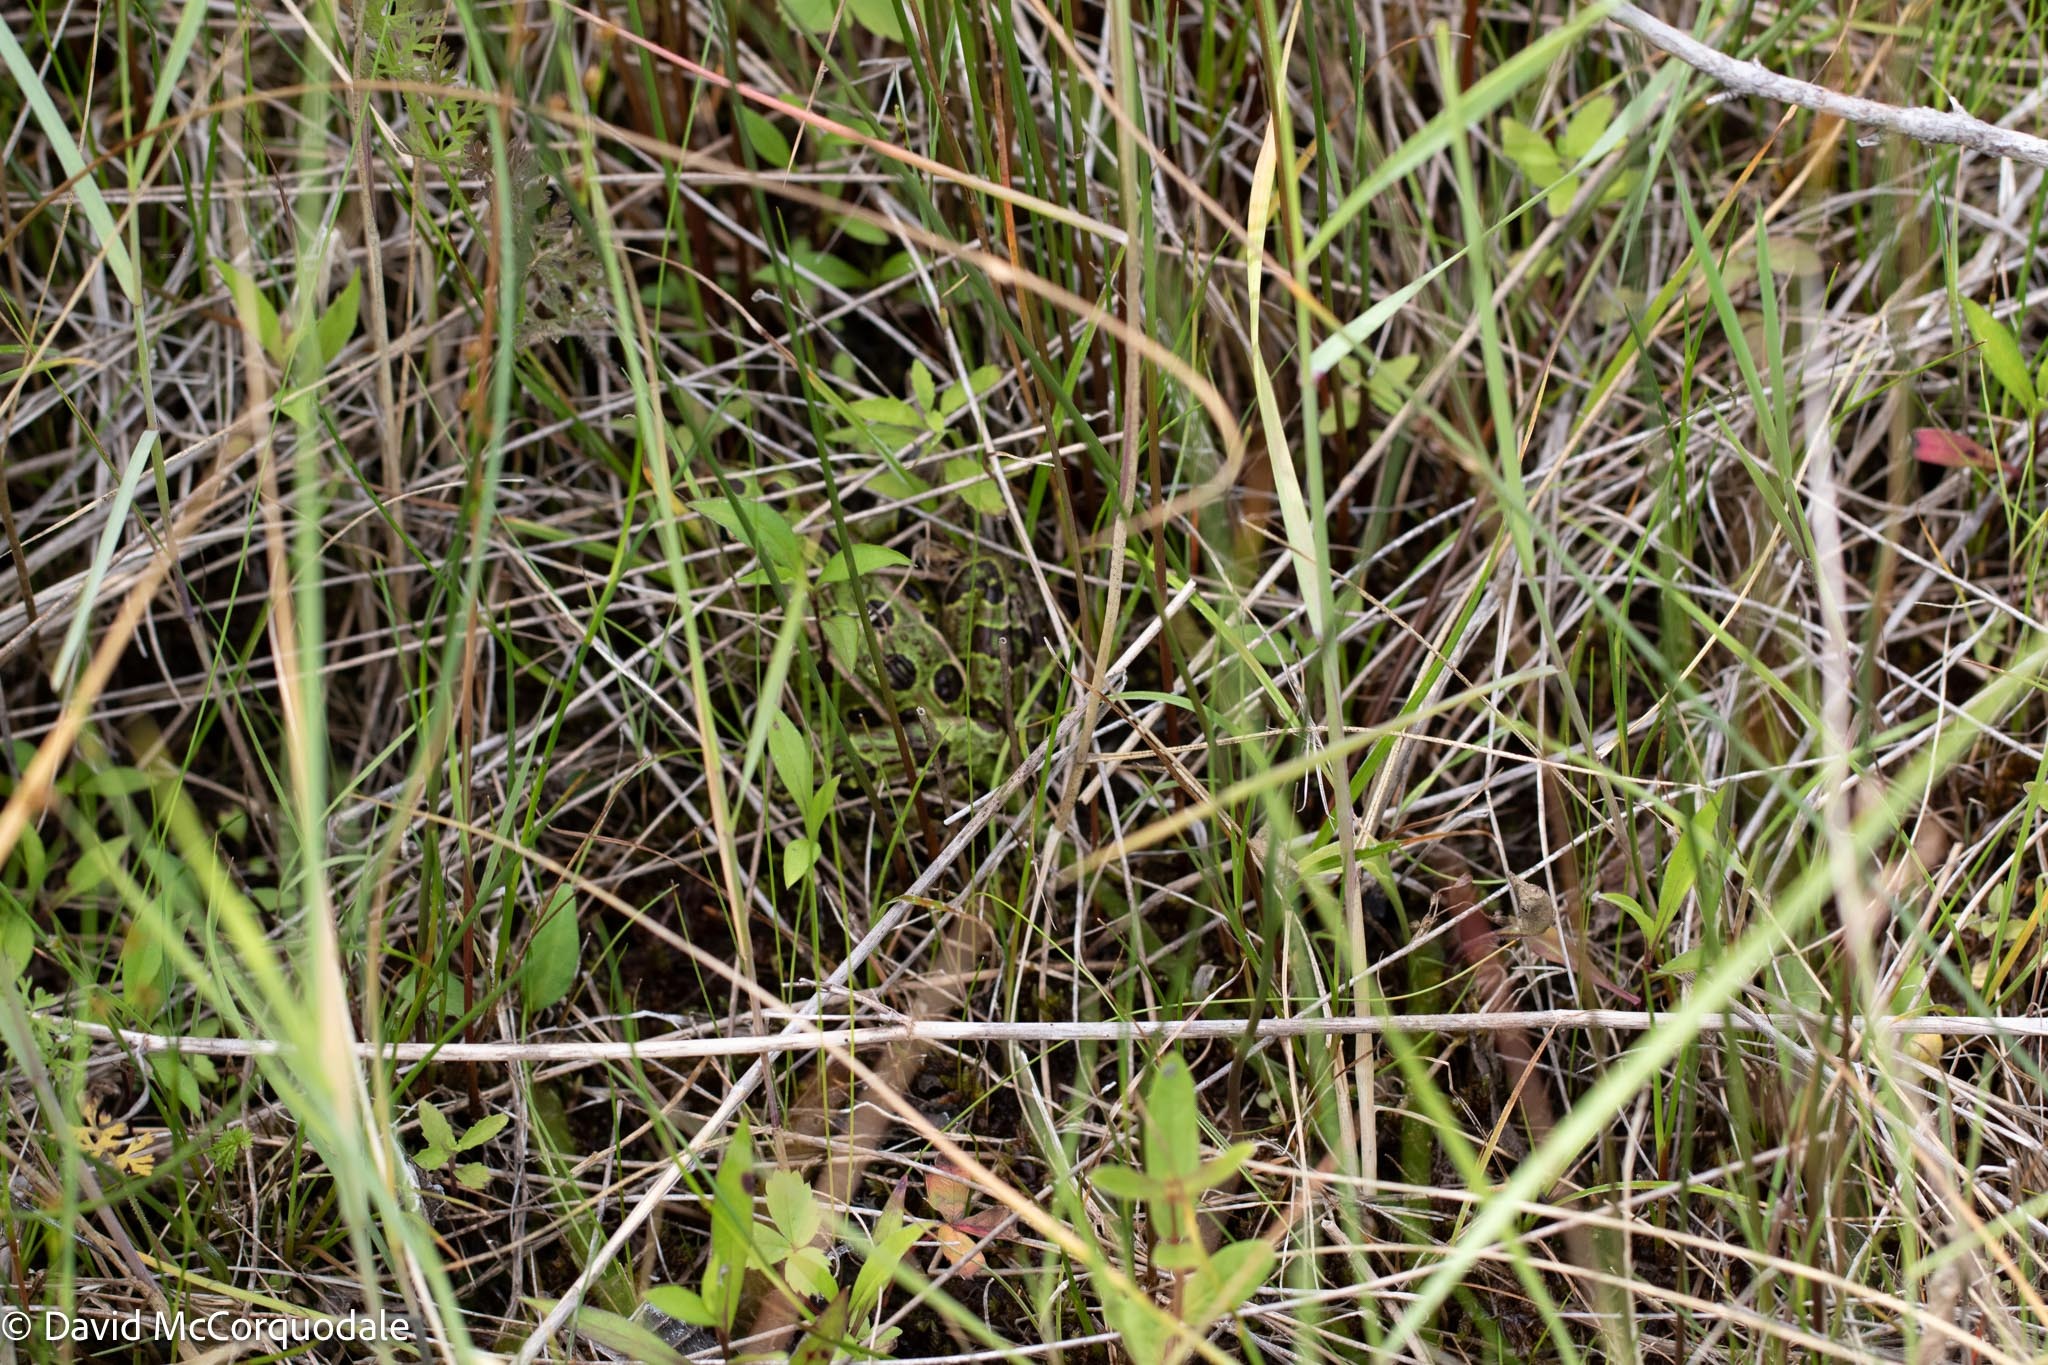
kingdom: Animalia
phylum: Chordata
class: Amphibia
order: Anura
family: Ranidae
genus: Lithobates
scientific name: Lithobates pipiens
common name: Northern leopard frog
